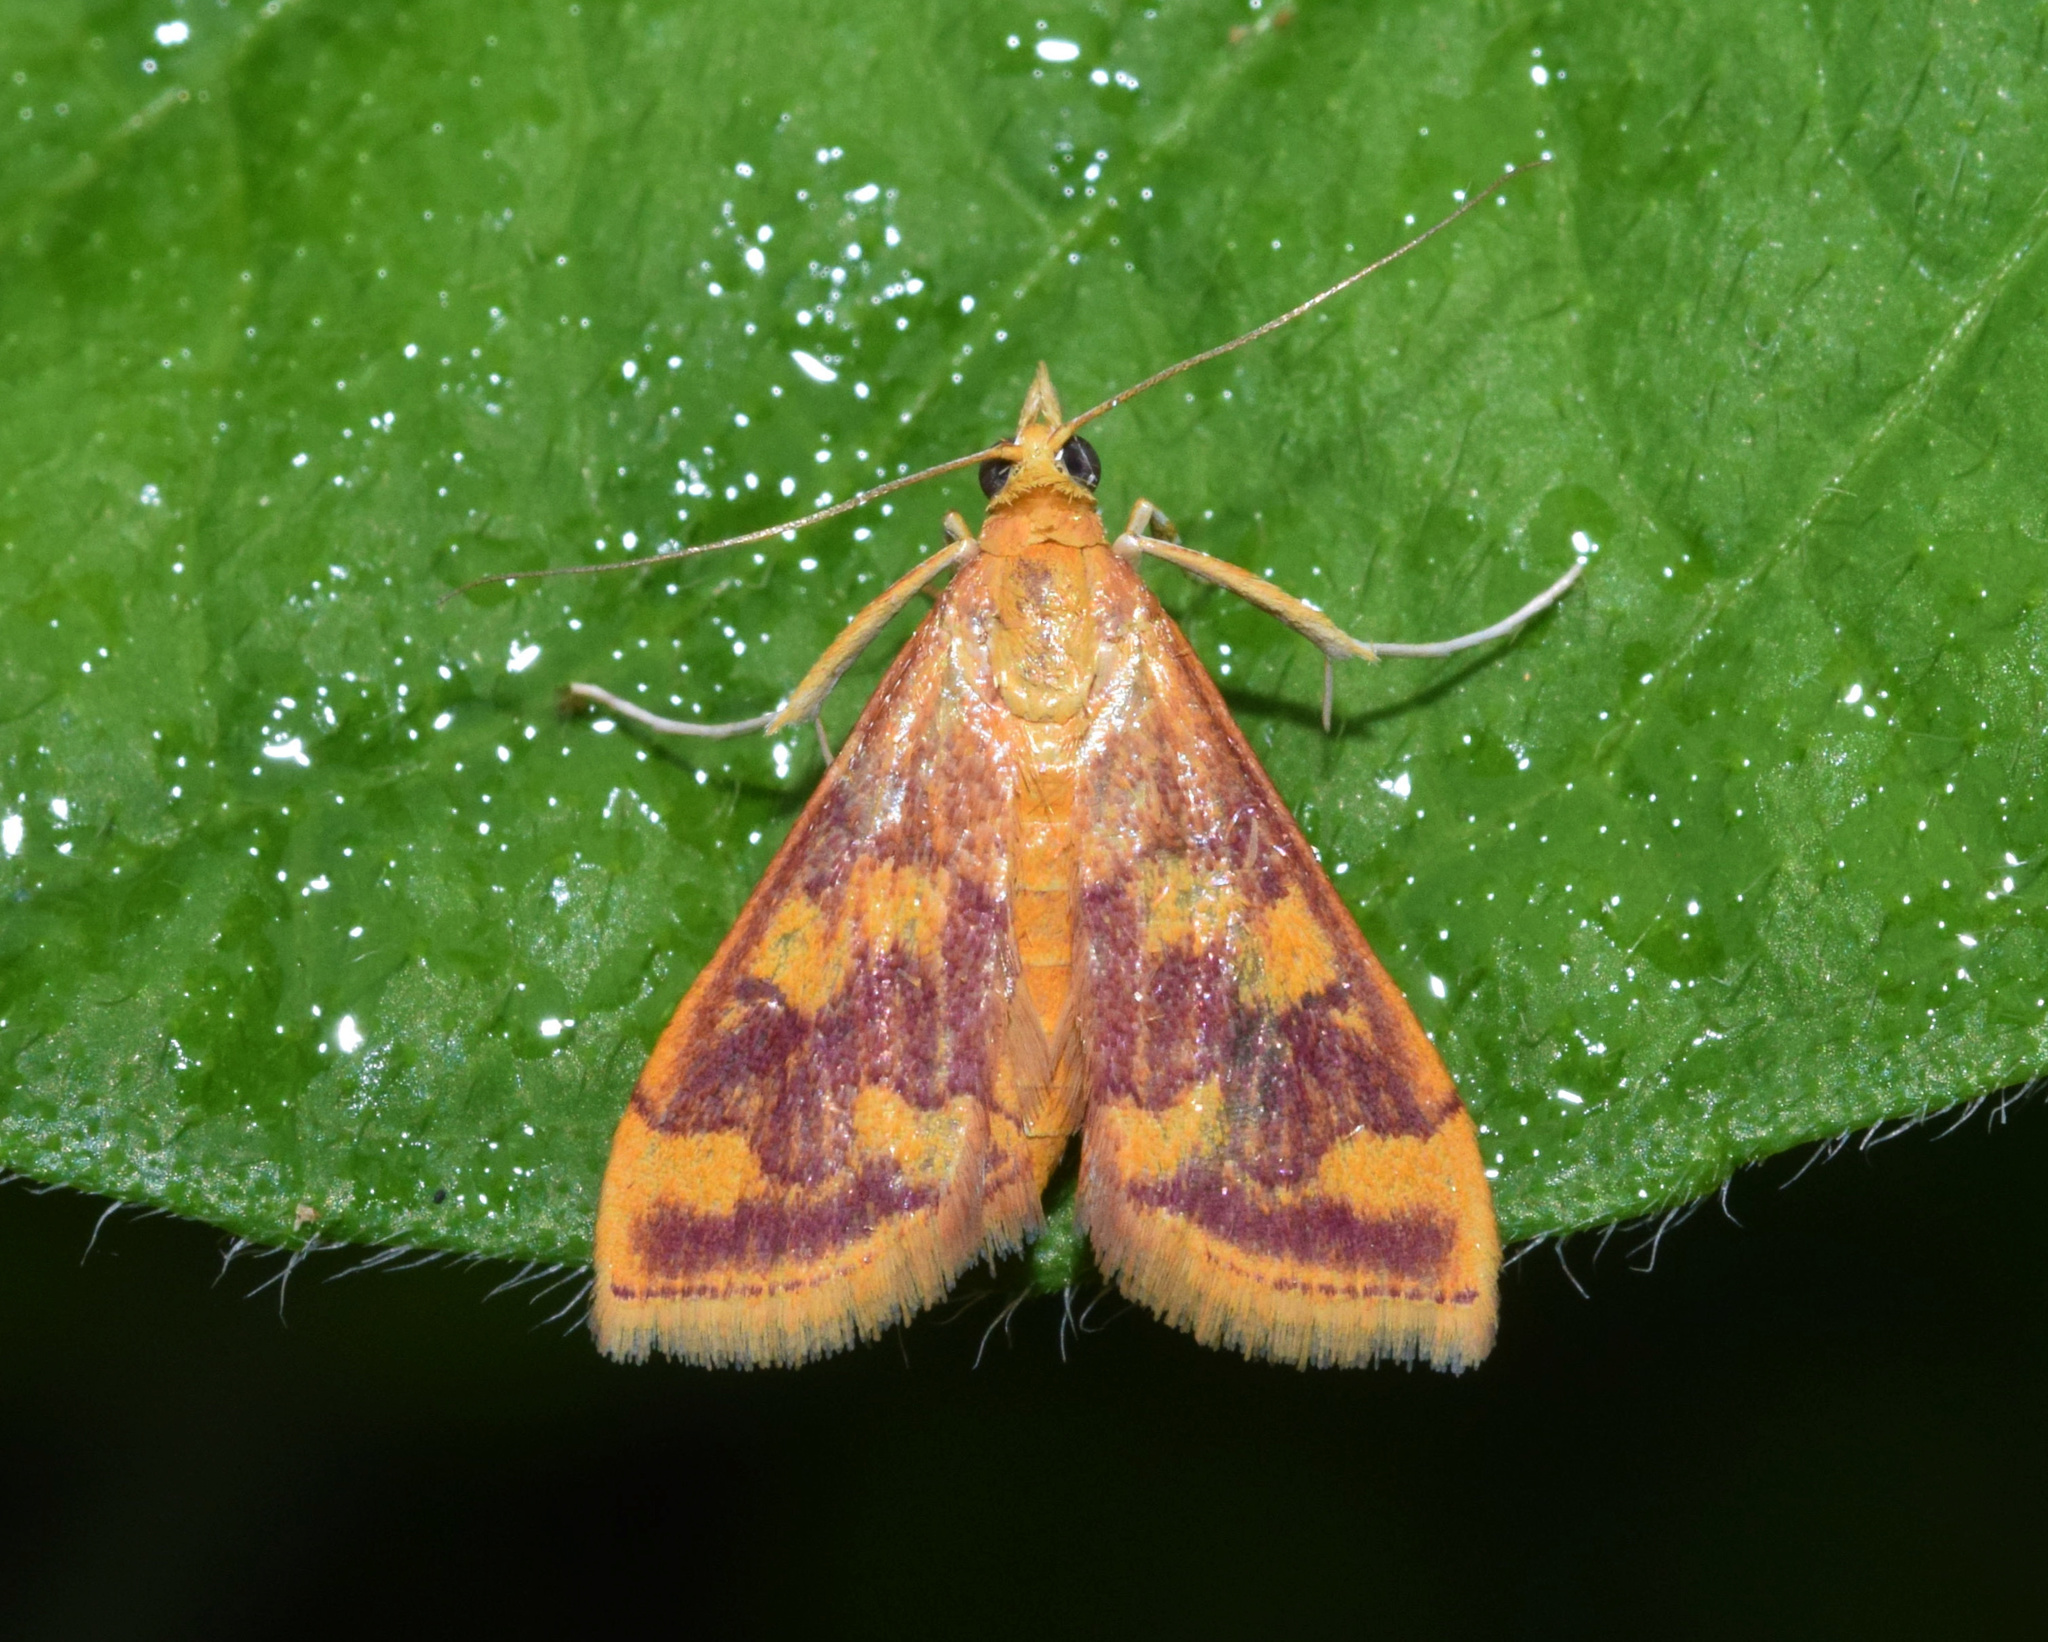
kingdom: Animalia
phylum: Arthropoda
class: Insecta
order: Lepidoptera
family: Crambidae
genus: Pyrausta
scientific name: Pyrausta phoenicealis
